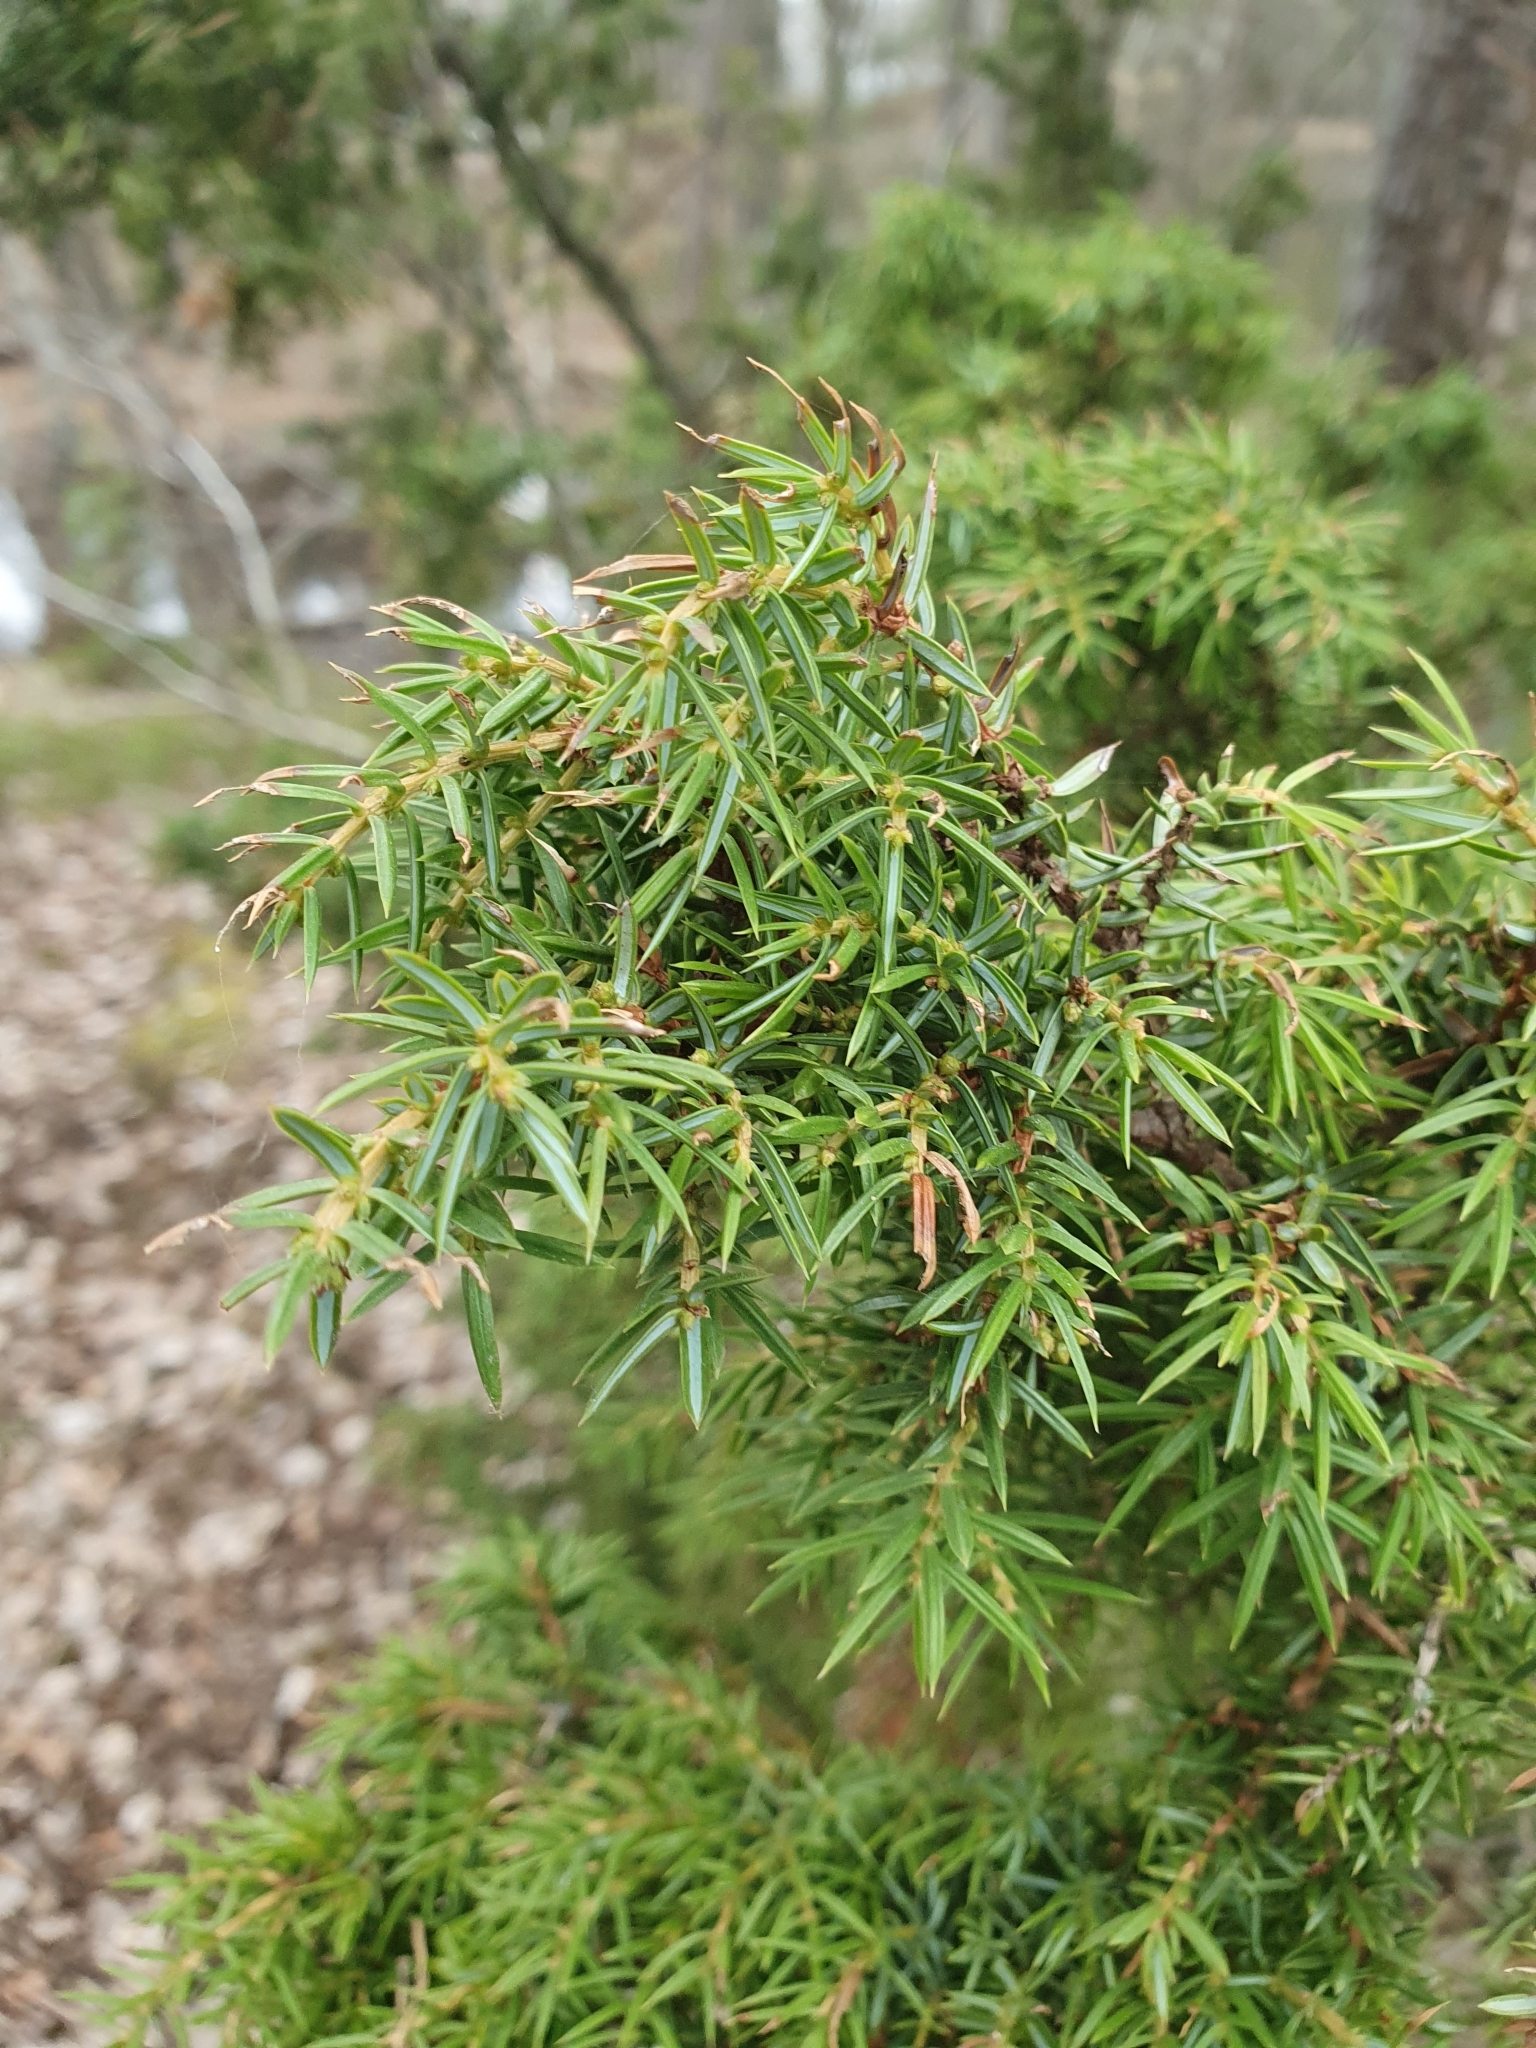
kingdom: Plantae
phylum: Tracheophyta
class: Pinopsida
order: Pinales
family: Cupressaceae
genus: Juniperus
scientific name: Juniperus communis
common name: Common juniper
